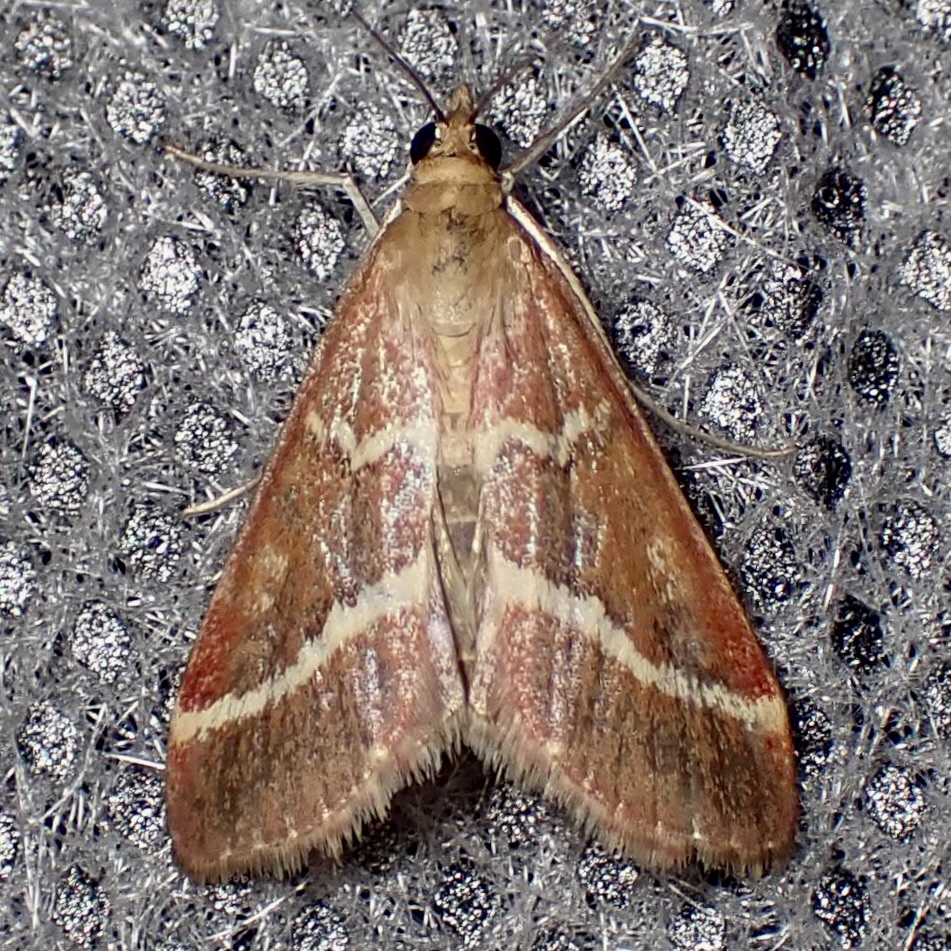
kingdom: Animalia
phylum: Arthropoda
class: Insecta
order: Lepidoptera
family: Crambidae
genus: Pyrausta
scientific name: Pyrausta volupialis
